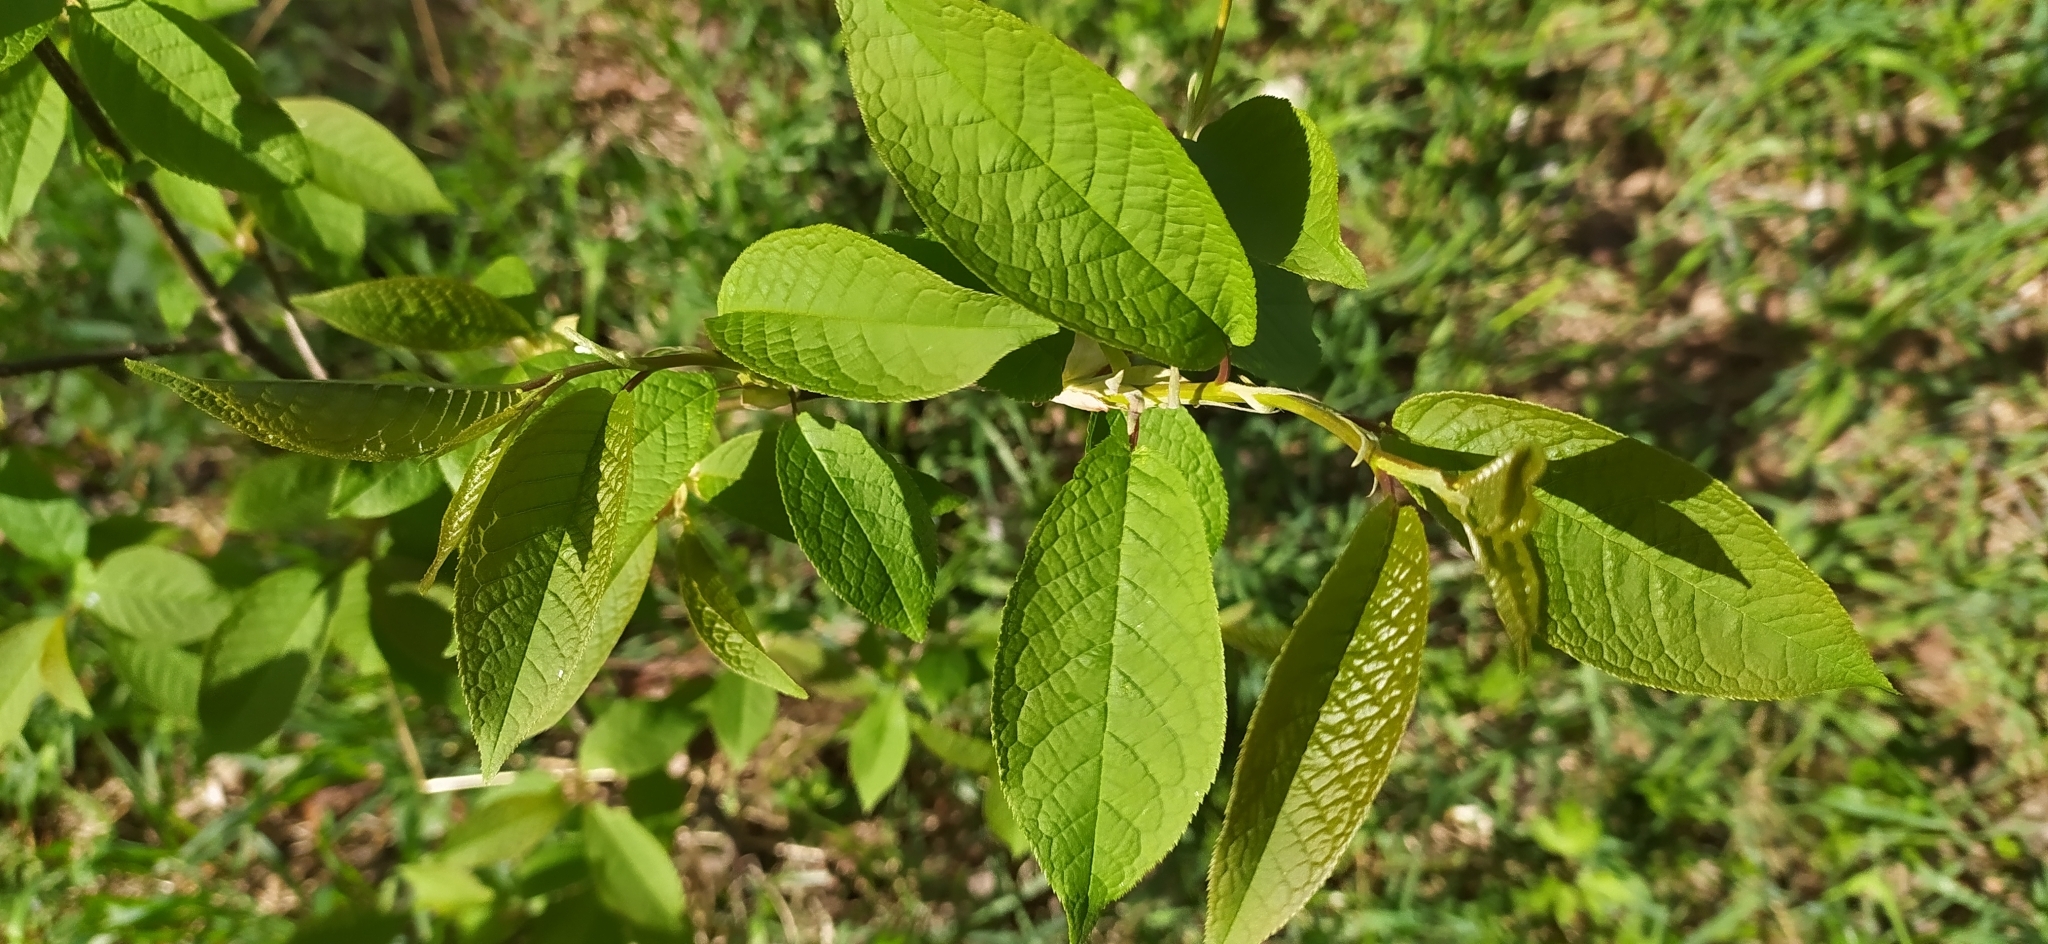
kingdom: Plantae
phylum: Tracheophyta
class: Magnoliopsida
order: Rosales
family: Rosaceae
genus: Prunus
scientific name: Prunus padus
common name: Bird cherry
